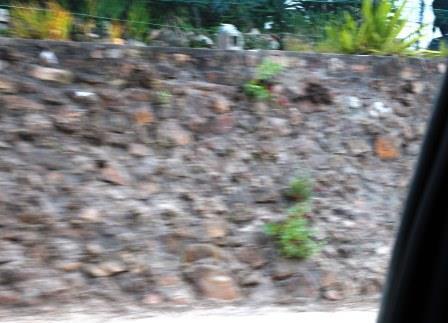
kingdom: Plantae
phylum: Tracheophyta
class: Magnoliopsida
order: Dipsacales
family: Caprifoliaceae
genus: Centranthus
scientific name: Centranthus ruber
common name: Red valerian
